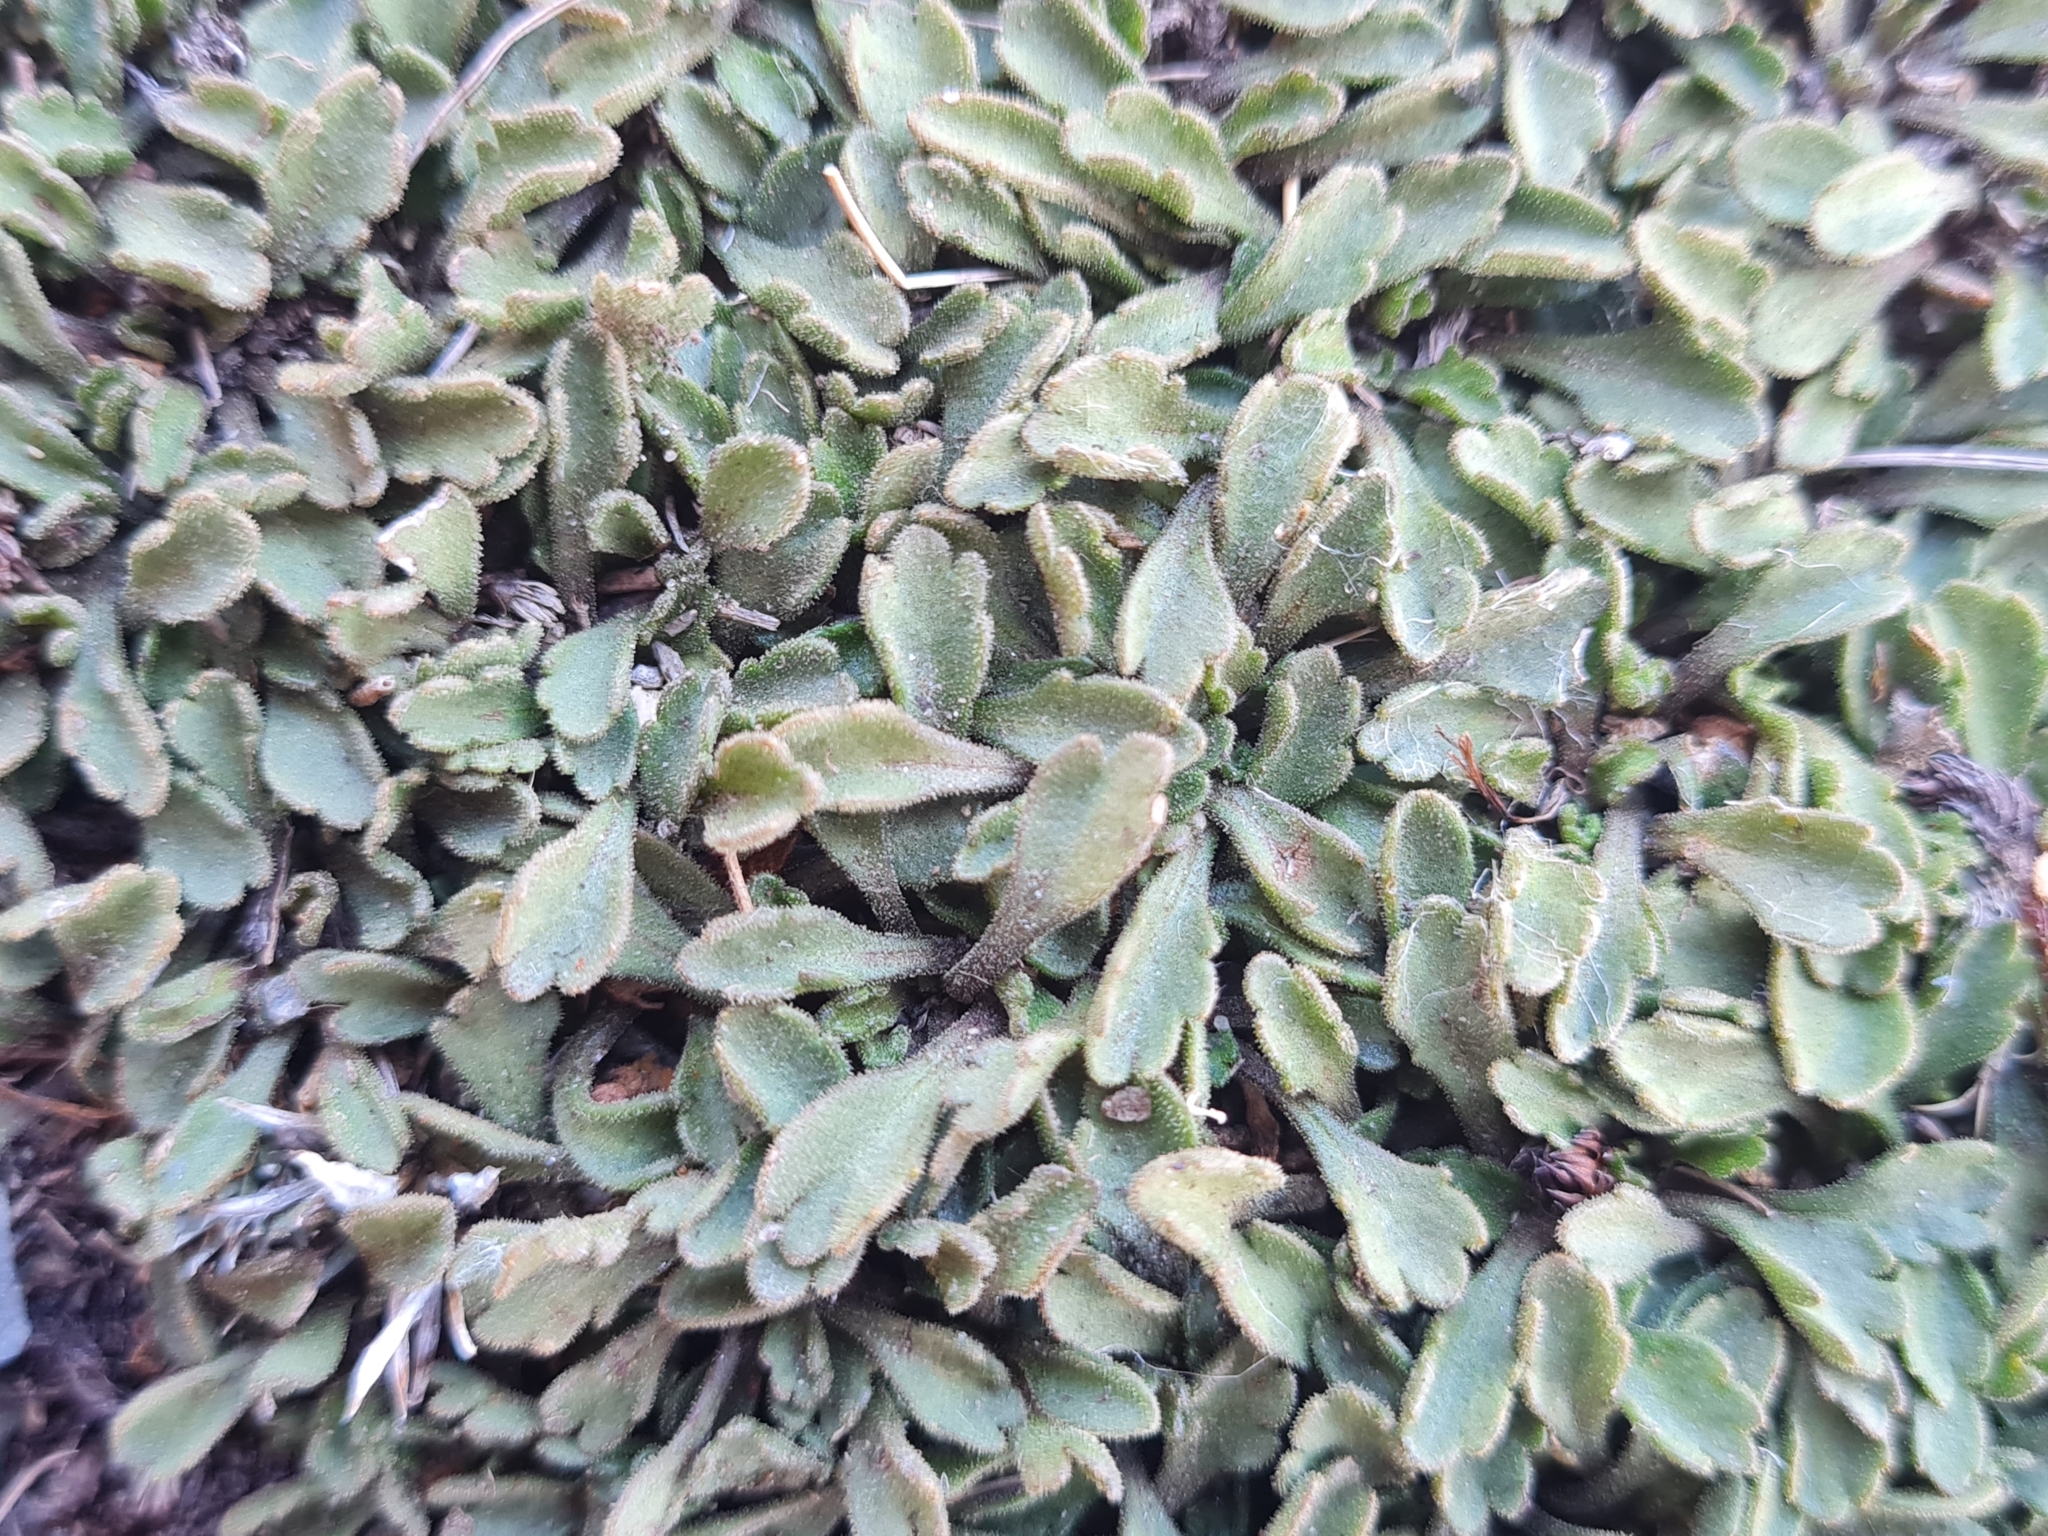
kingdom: Plantae
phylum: Tracheophyta
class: Magnoliopsida
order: Asterales
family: Asteraceae
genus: Brachyscome
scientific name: Brachyscome montana
